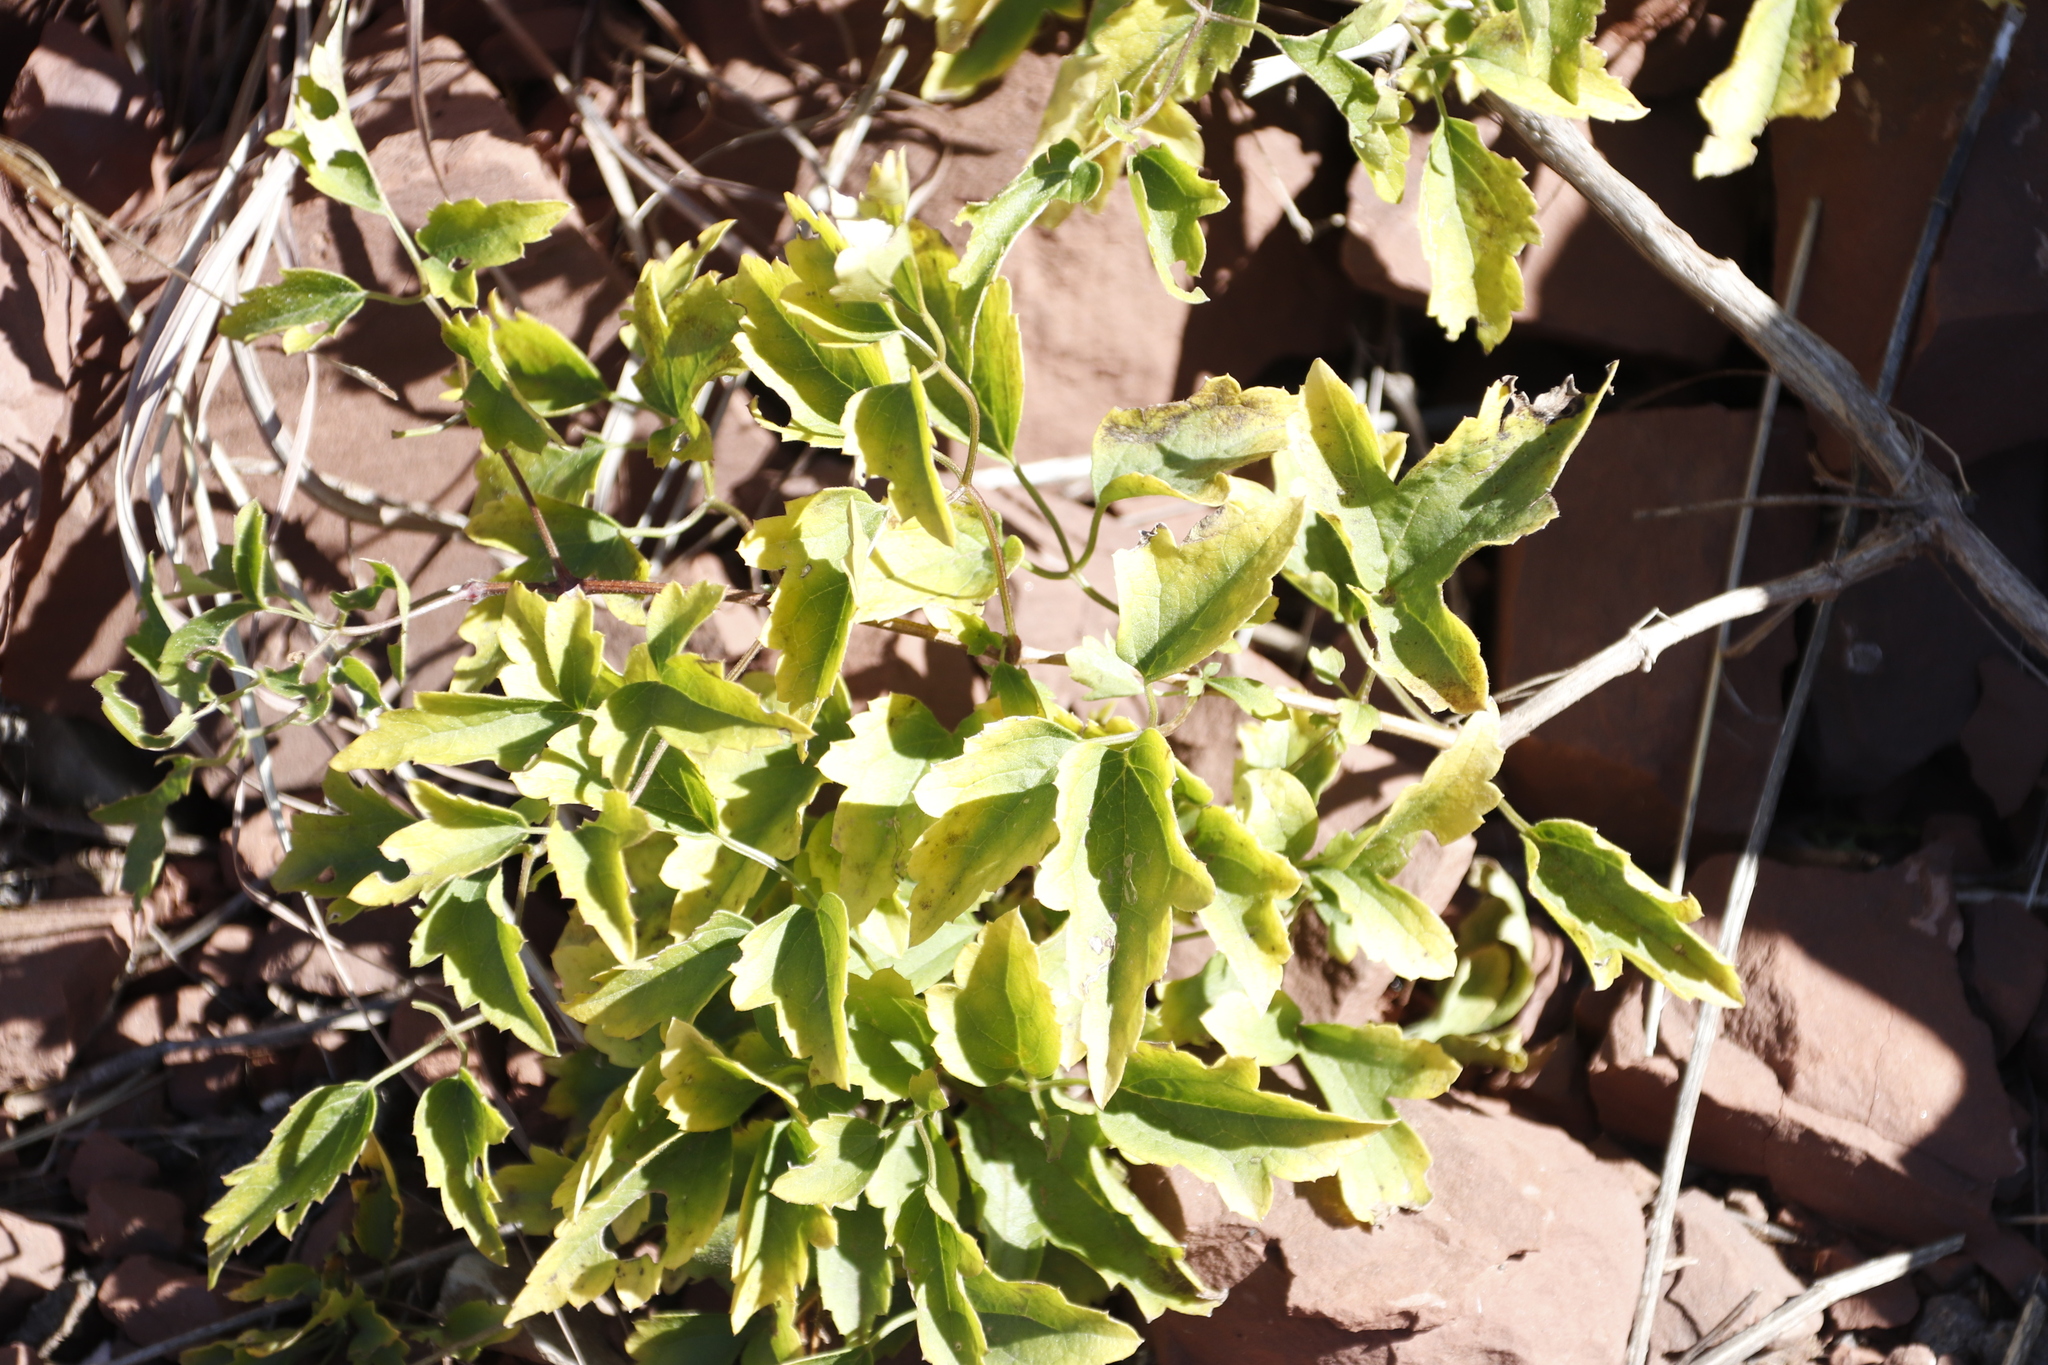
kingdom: Plantae
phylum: Tracheophyta
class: Magnoliopsida
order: Ranunculales
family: Ranunculaceae
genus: Clematis
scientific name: Clematis brachiata
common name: Traveler's-joy
